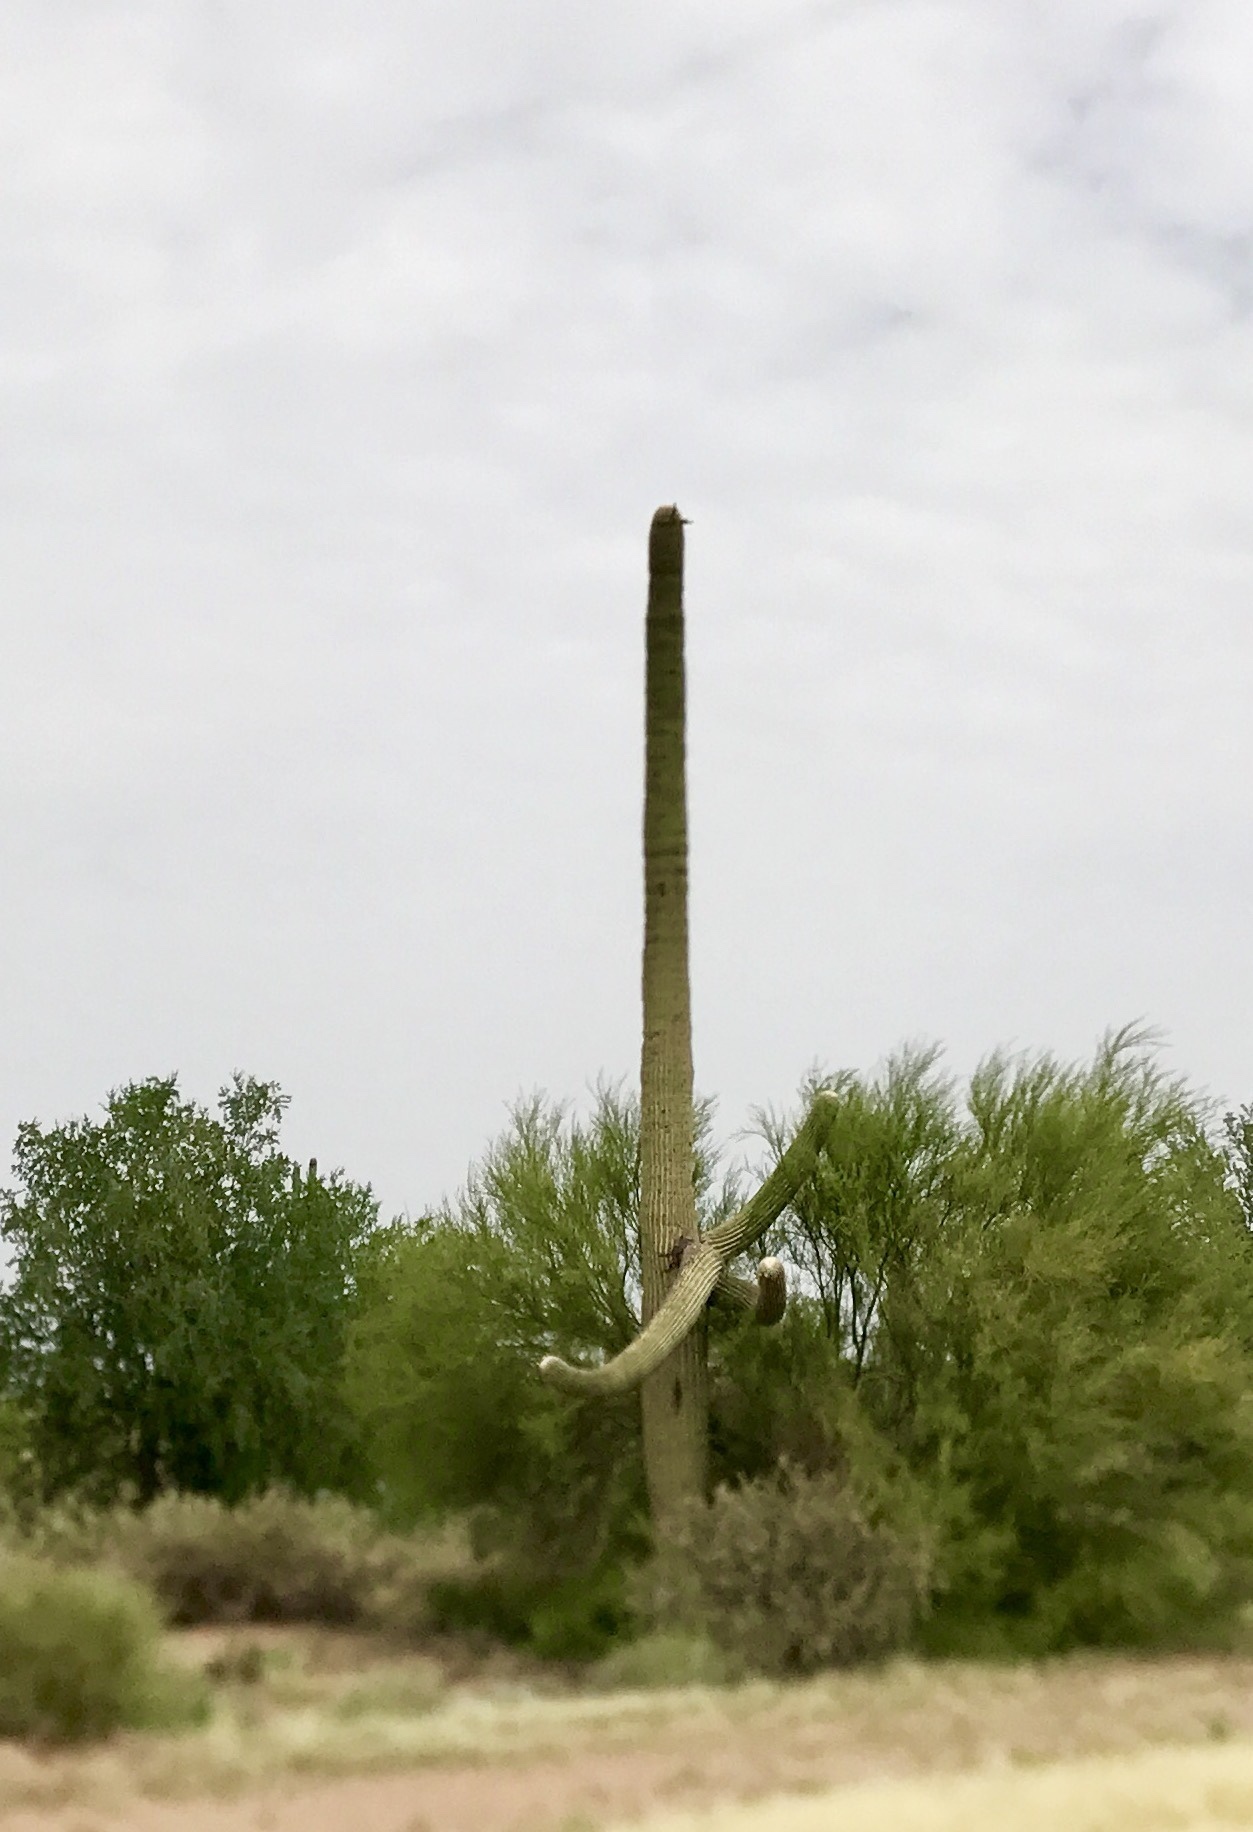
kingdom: Plantae
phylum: Tracheophyta
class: Magnoliopsida
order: Caryophyllales
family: Cactaceae
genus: Carnegiea
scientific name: Carnegiea gigantea
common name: Saguaro
